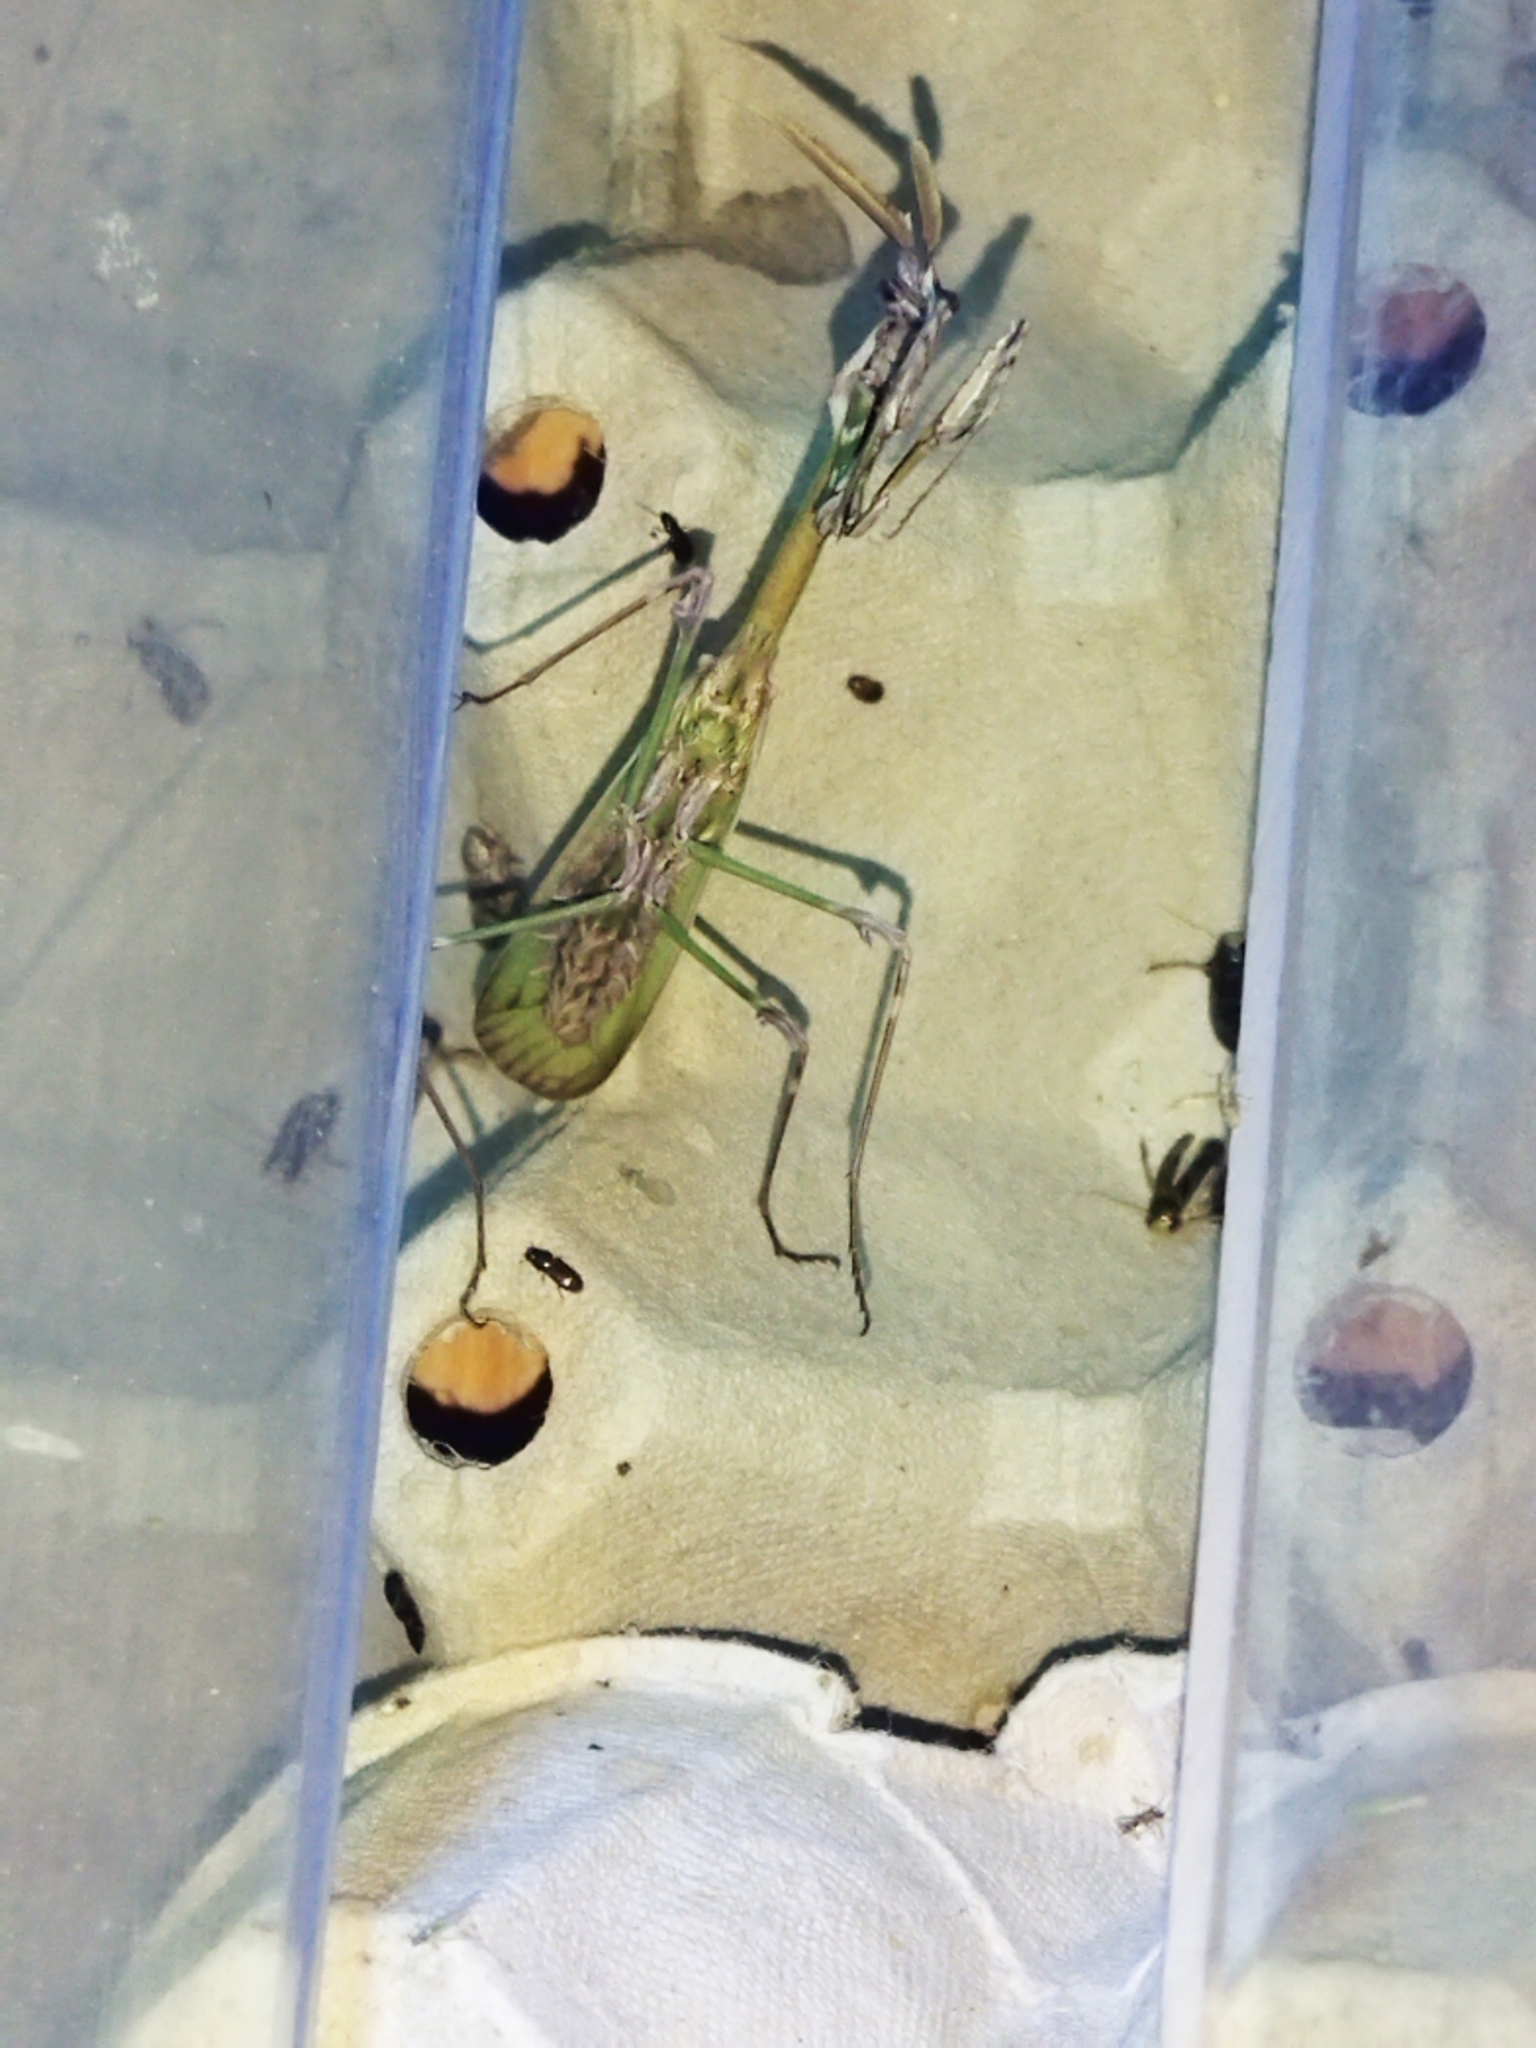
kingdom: Animalia
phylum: Arthropoda
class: Insecta
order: Mantodea
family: Empusidae
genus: Empusa
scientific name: Empusa fasciata
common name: Devil's mare
